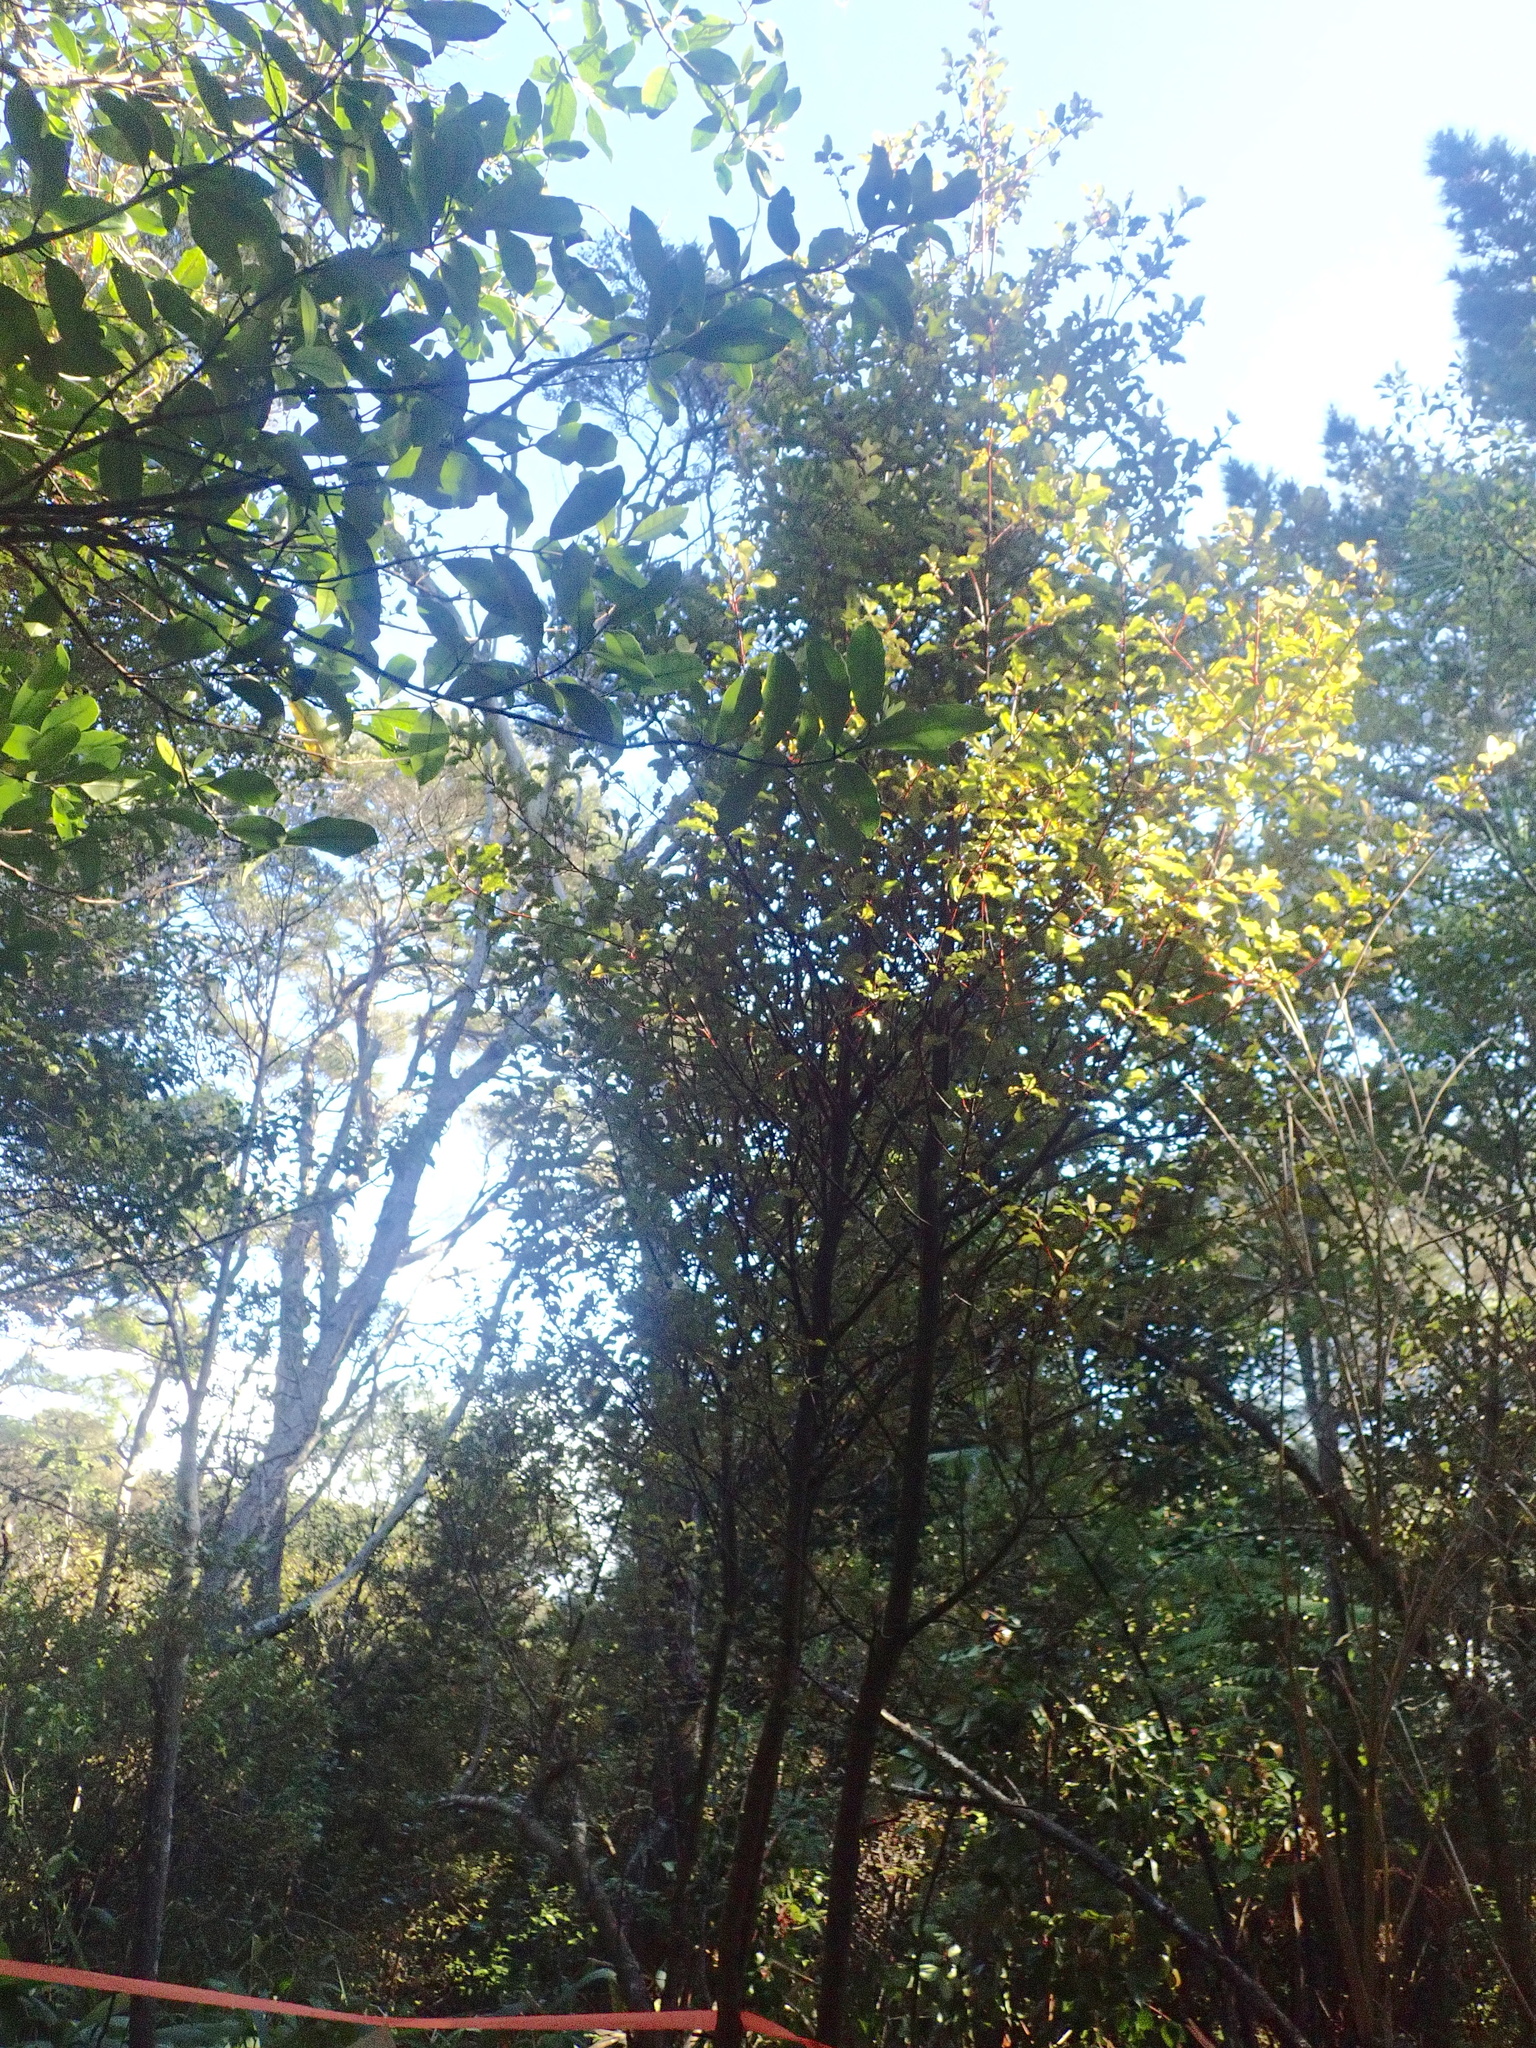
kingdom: Plantae
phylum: Tracheophyta
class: Magnoliopsida
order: Ericales
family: Primulaceae
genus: Myrsine
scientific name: Myrsine australis
